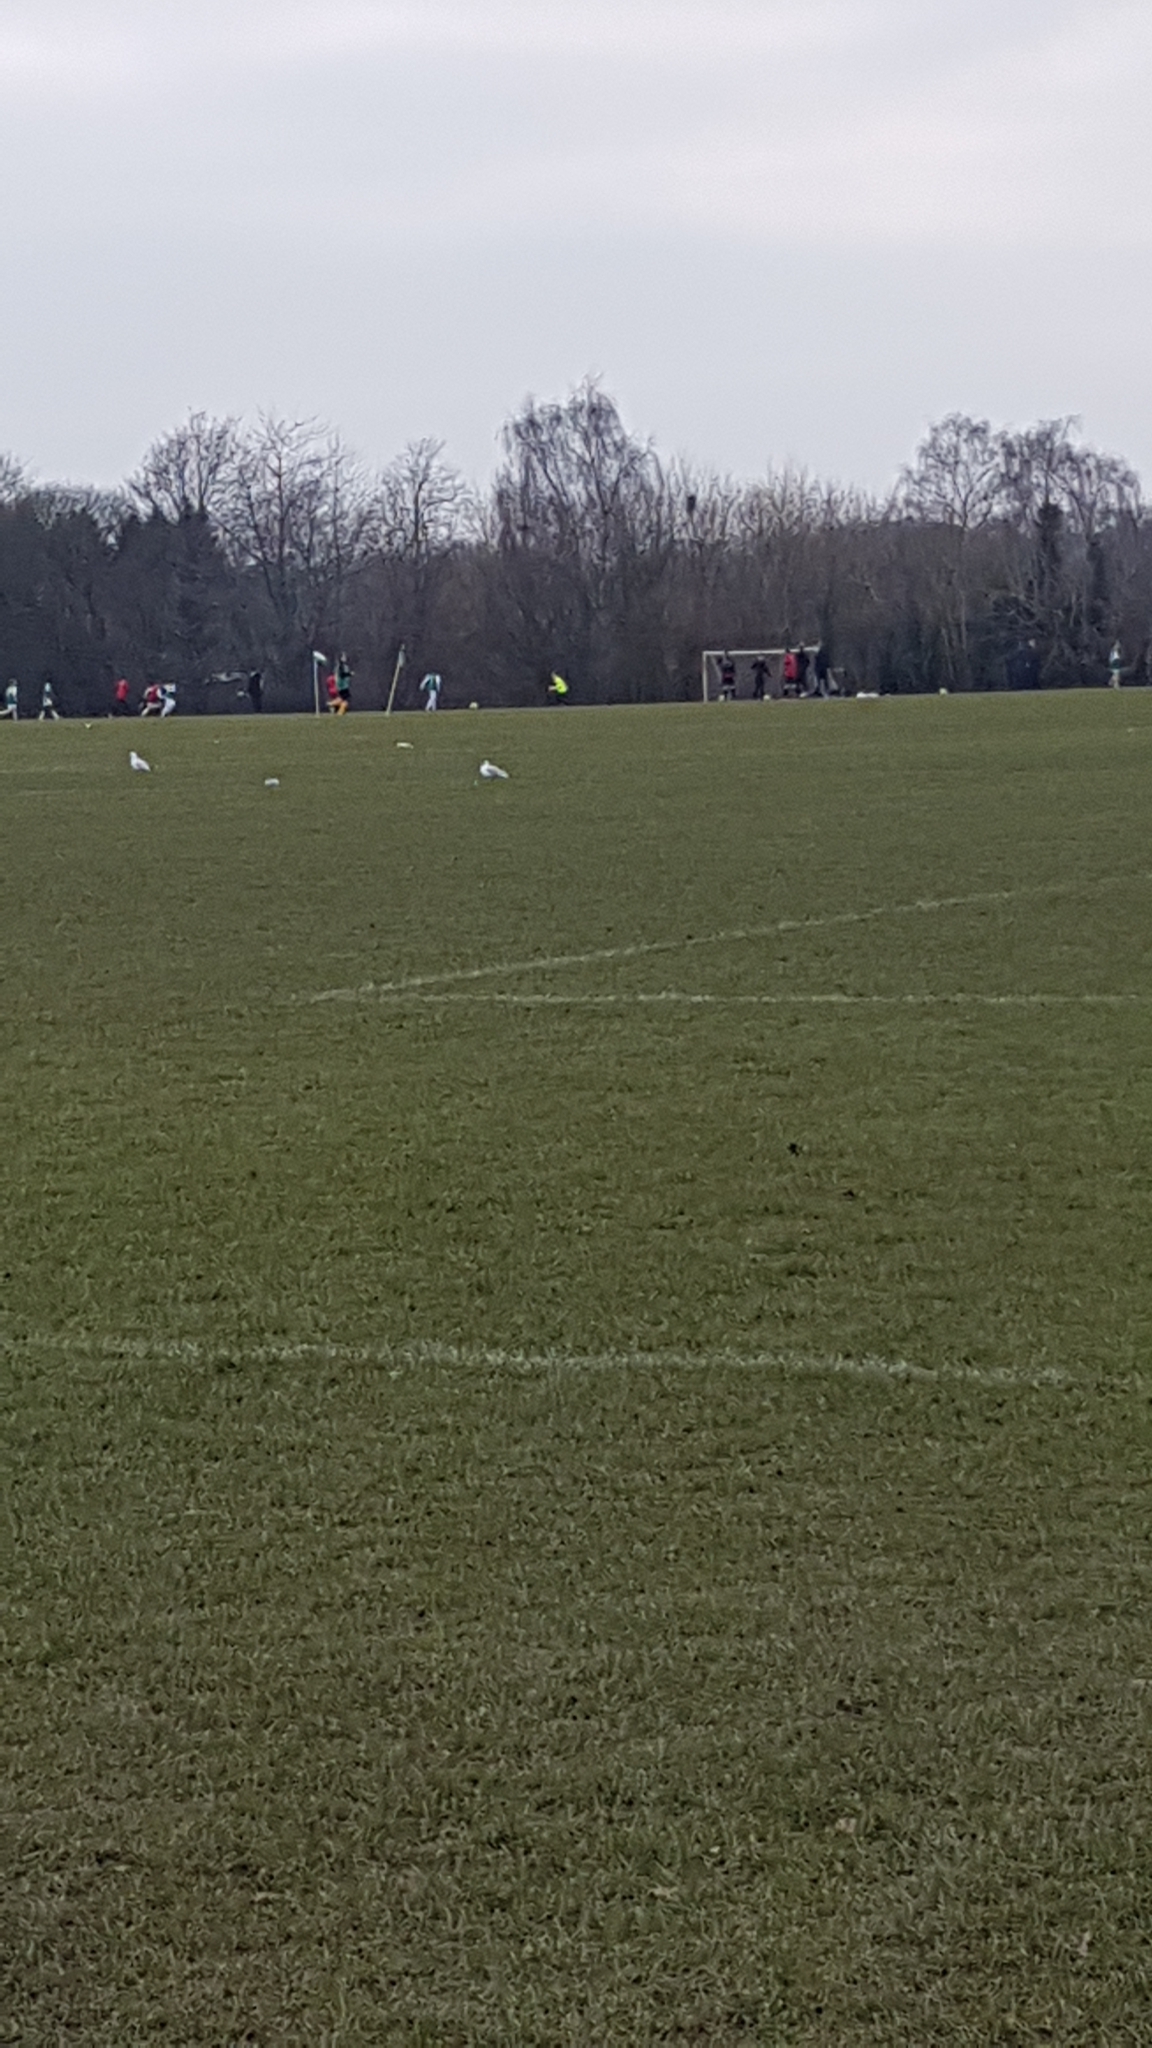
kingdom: Animalia
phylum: Chordata
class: Aves
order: Charadriiformes
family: Laridae
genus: Chroicocephalus
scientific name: Chroicocephalus ridibundus
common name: Black-headed gull
